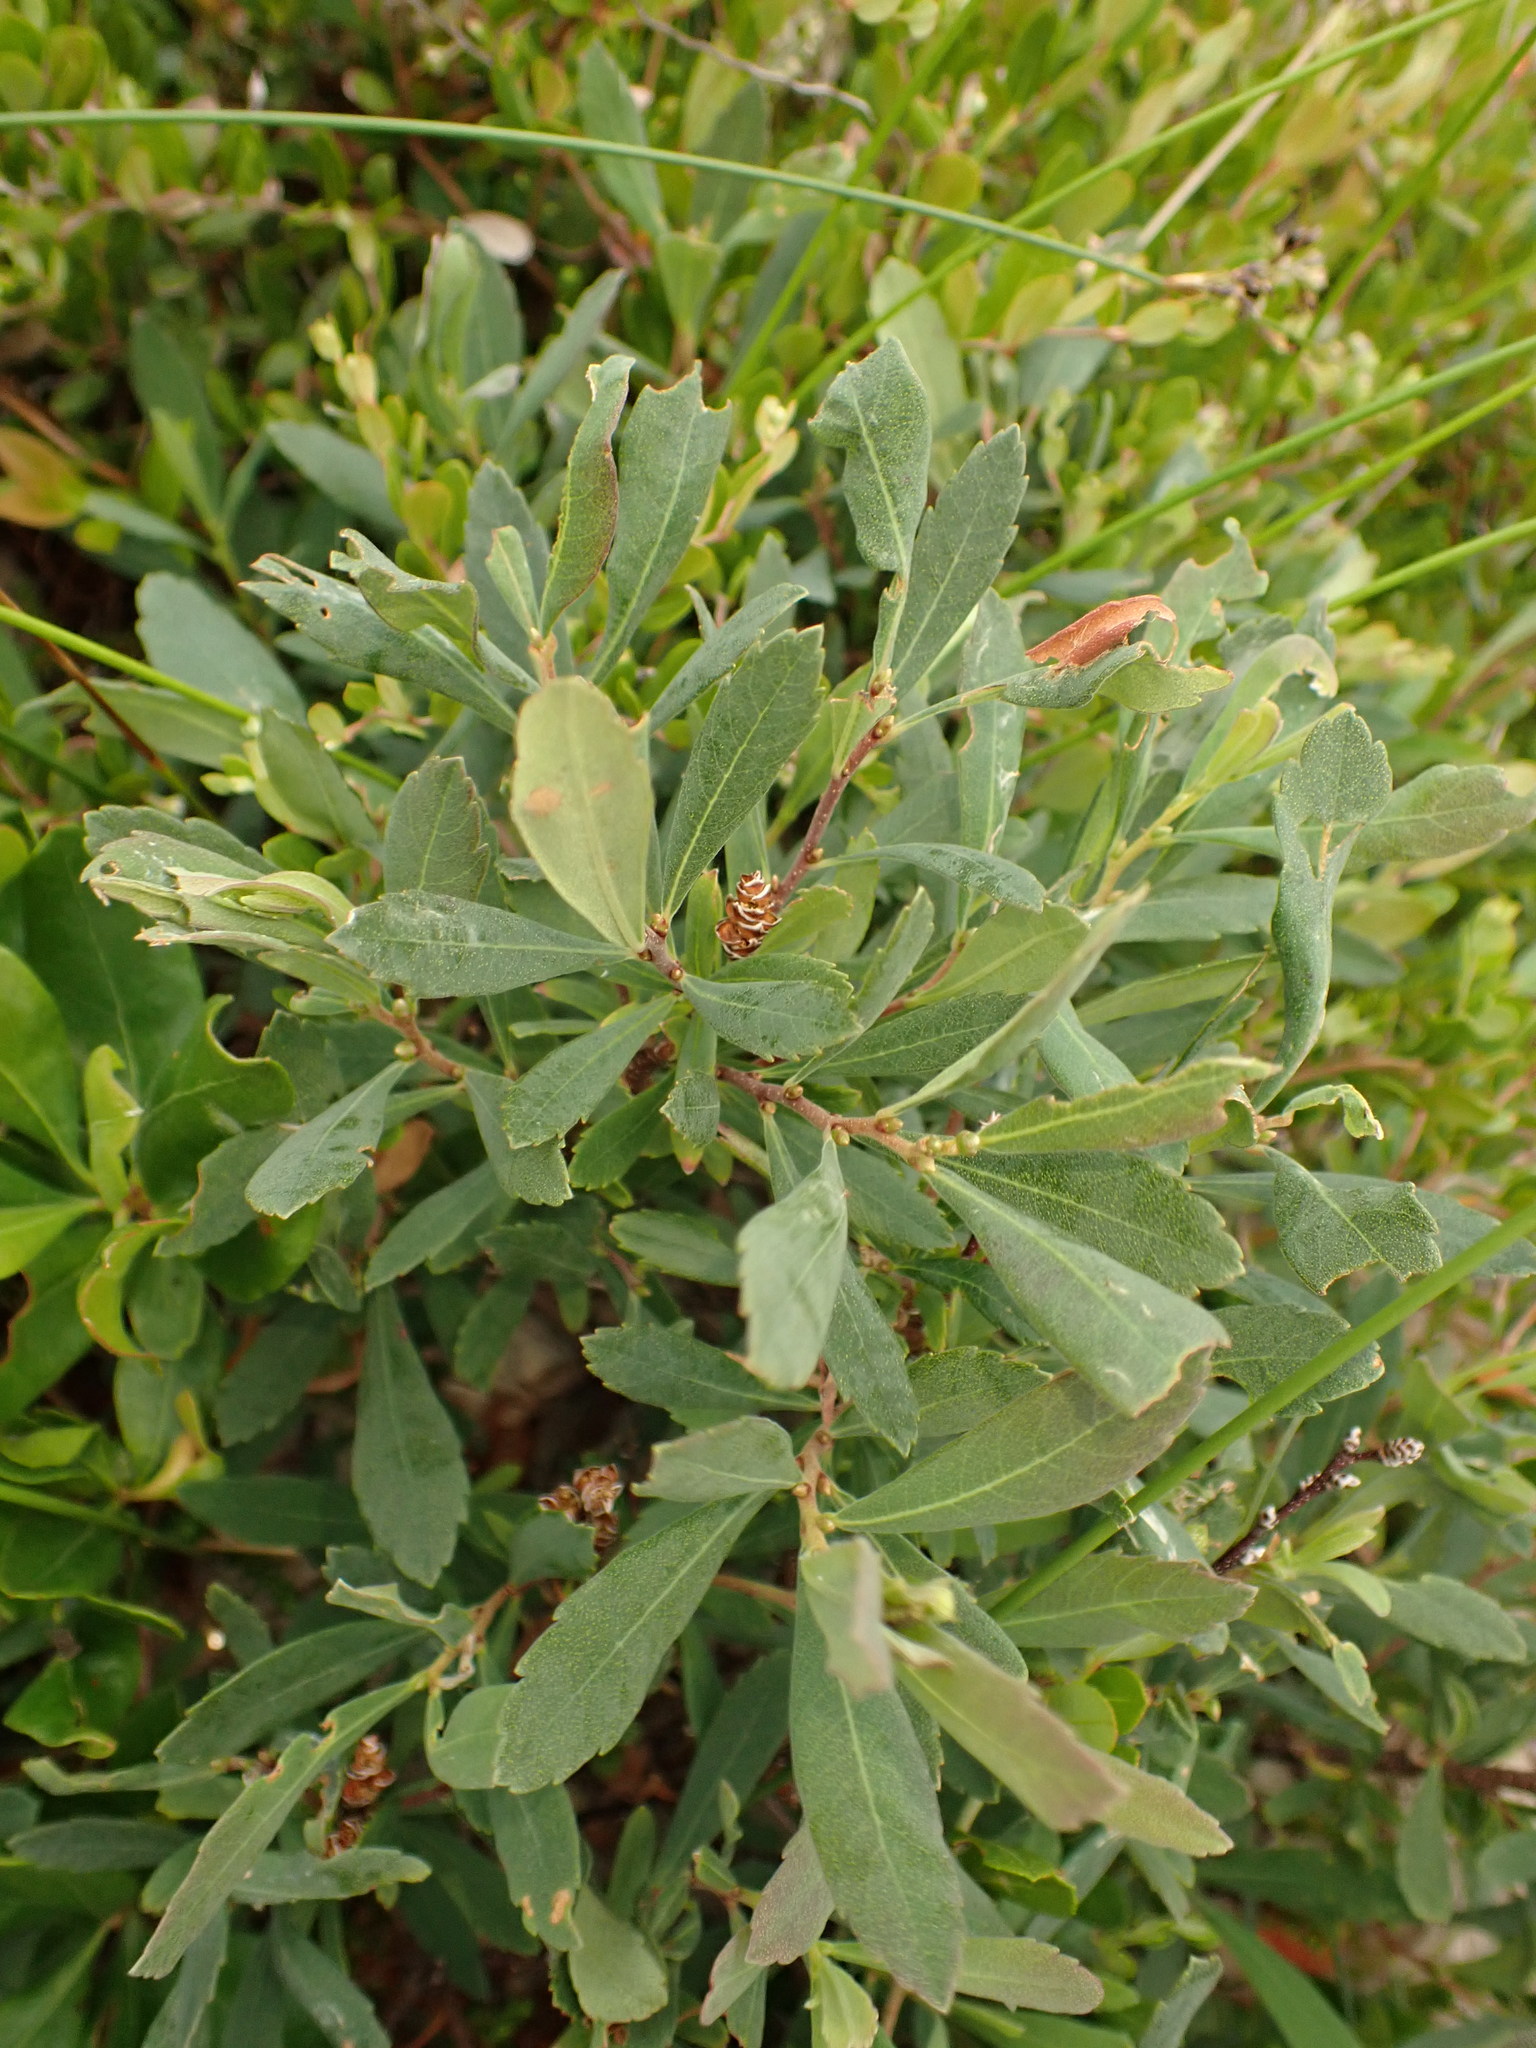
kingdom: Plantae
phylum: Tracheophyta
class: Magnoliopsida
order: Fagales
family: Myricaceae
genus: Myrica
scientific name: Myrica gale
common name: Sweet gale
